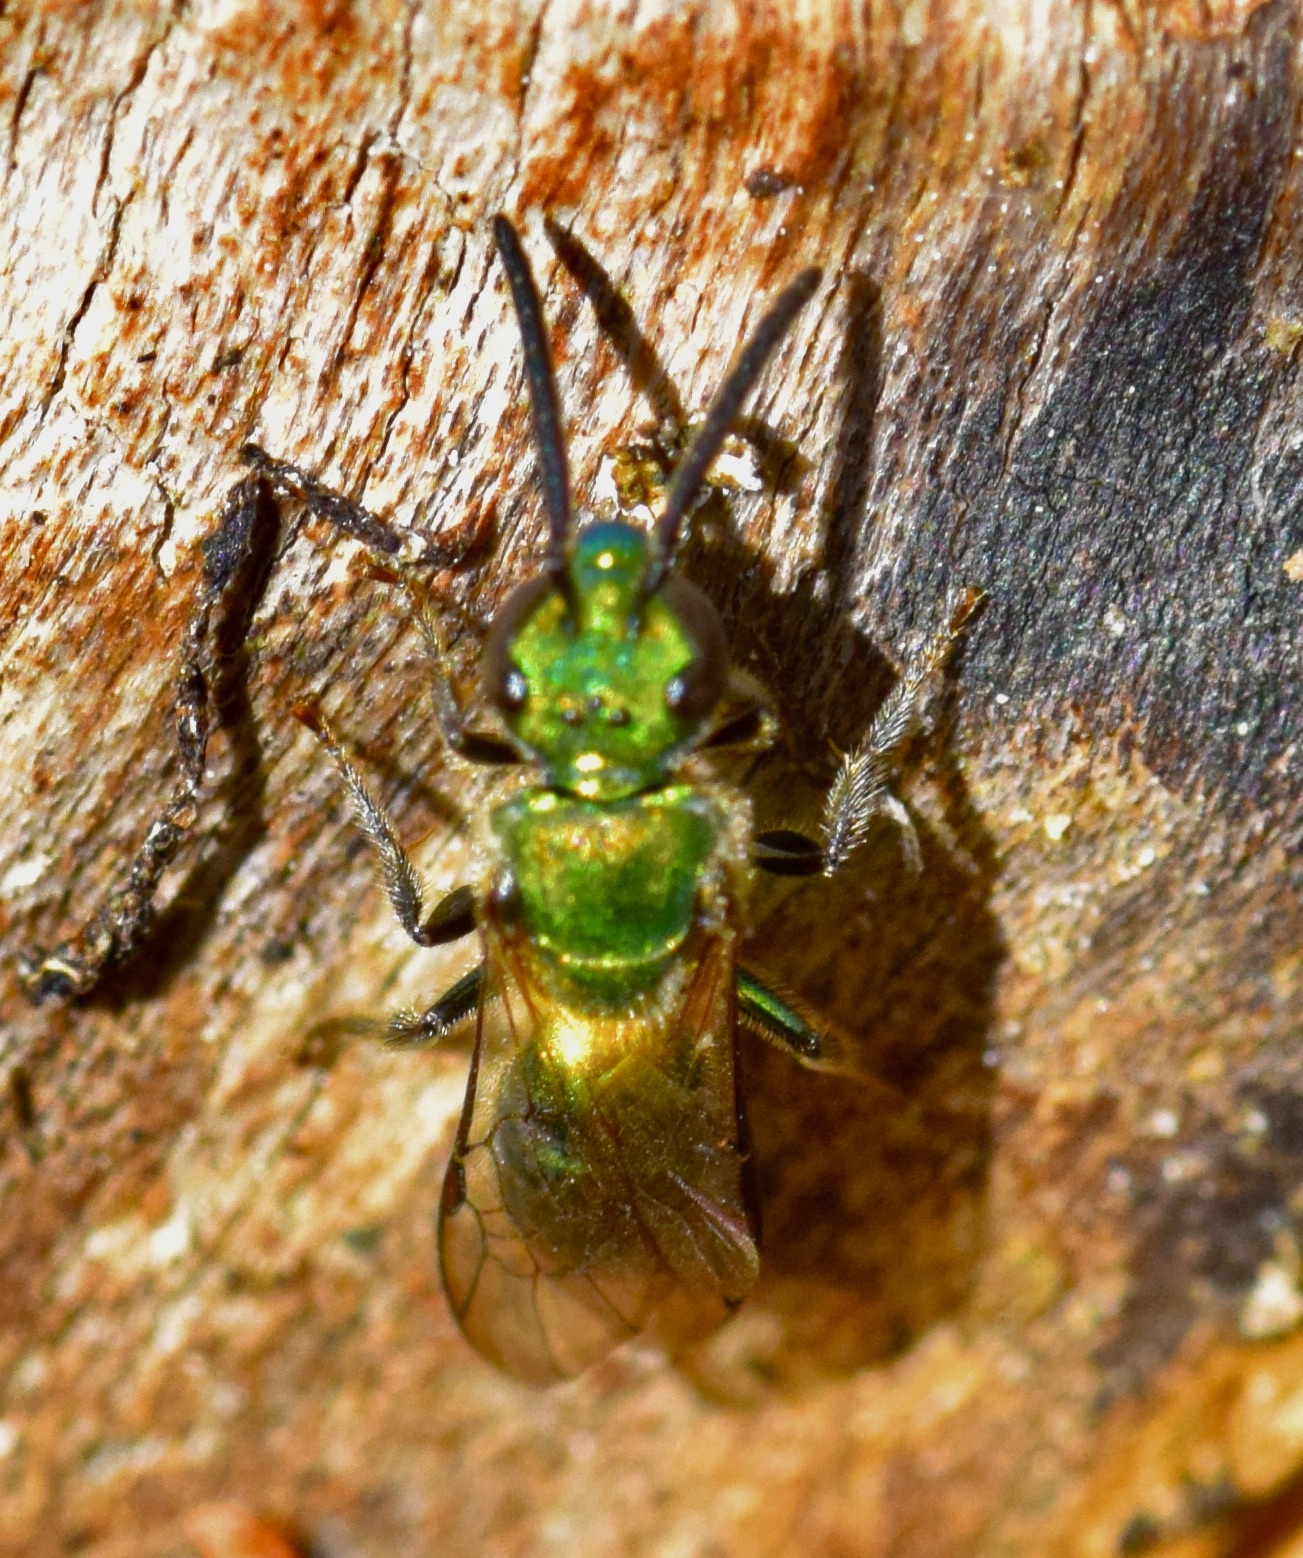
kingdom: Animalia
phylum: Arthropoda
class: Insecta
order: Hymenoptera
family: Halictidae
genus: Augochlora
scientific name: Augochlora pura
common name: Pure green sweat bee
